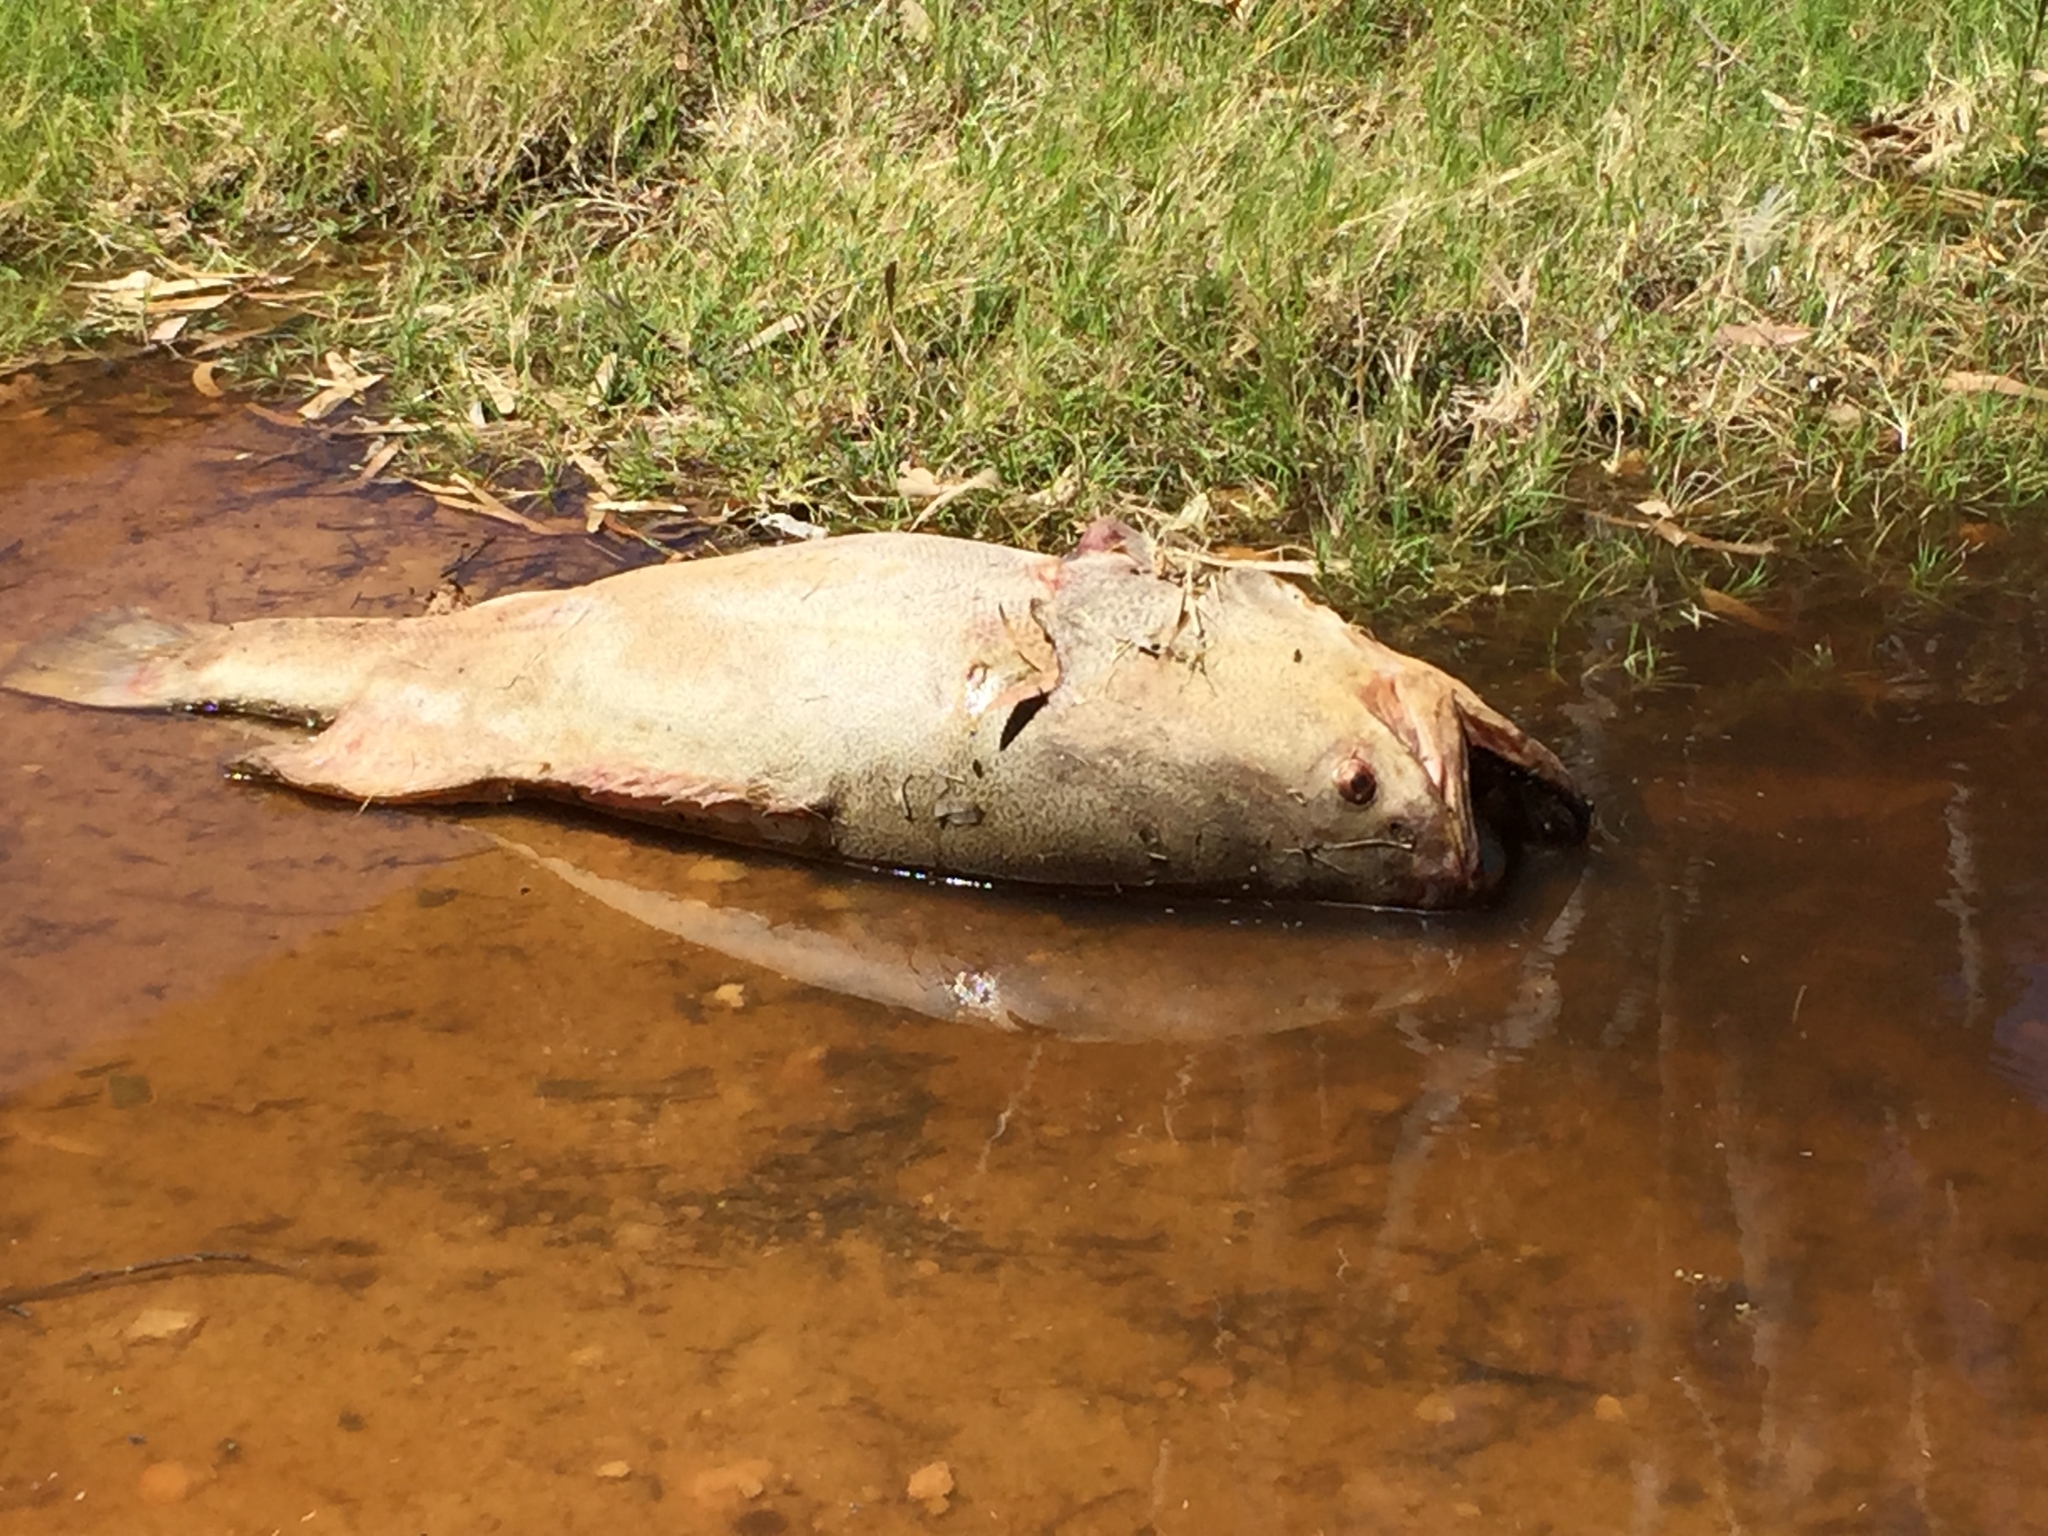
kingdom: Animalia
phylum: Chordata
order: Perciformes
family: Percichthyidae
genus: Maccullochella
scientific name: Maccullochella peelii
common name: Murray cod
